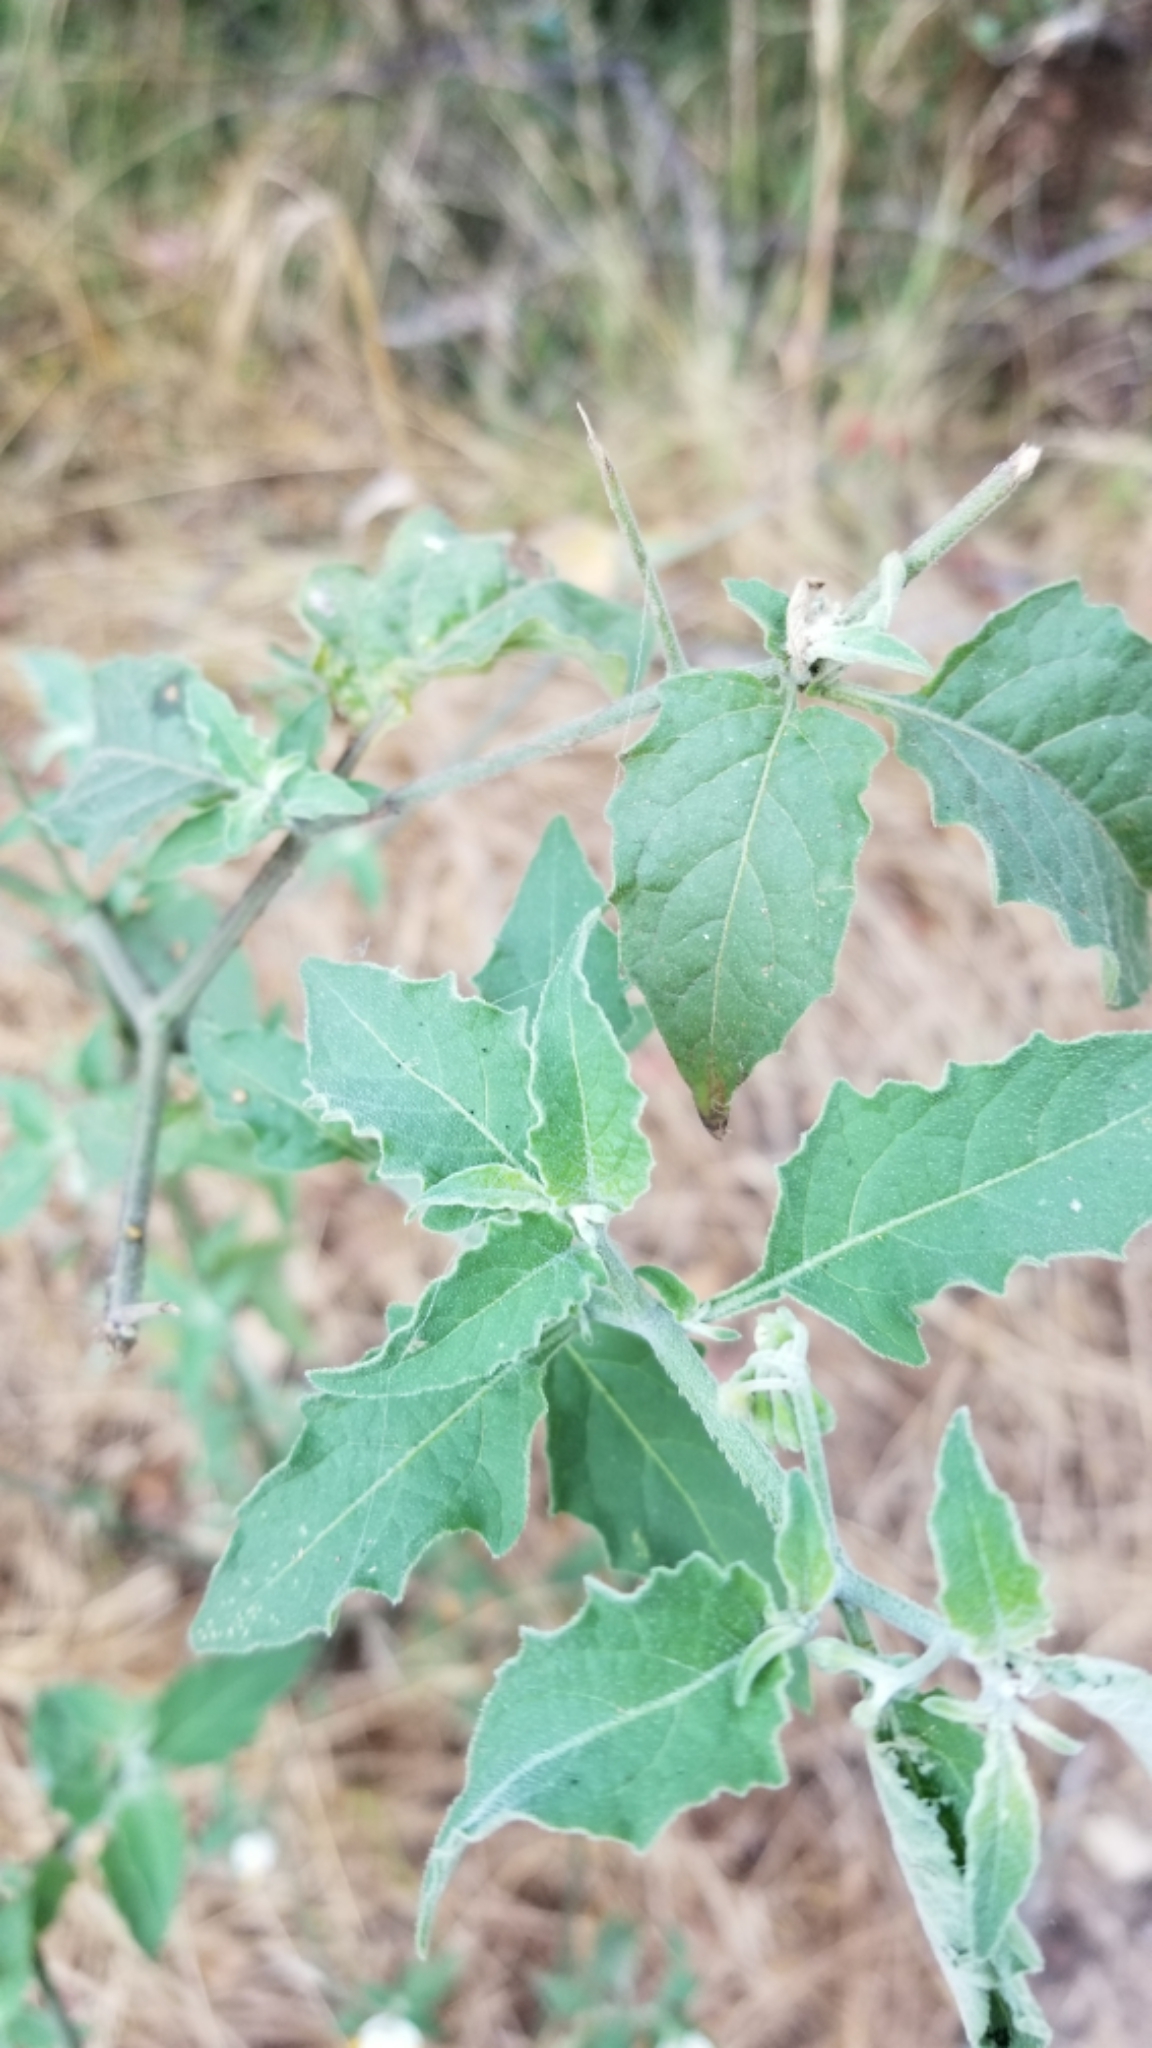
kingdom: Plantae
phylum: Tracheophyta
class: Magnoliopsida
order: Solanales
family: Solanaceae
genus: Solanum
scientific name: Solanum douglasii
